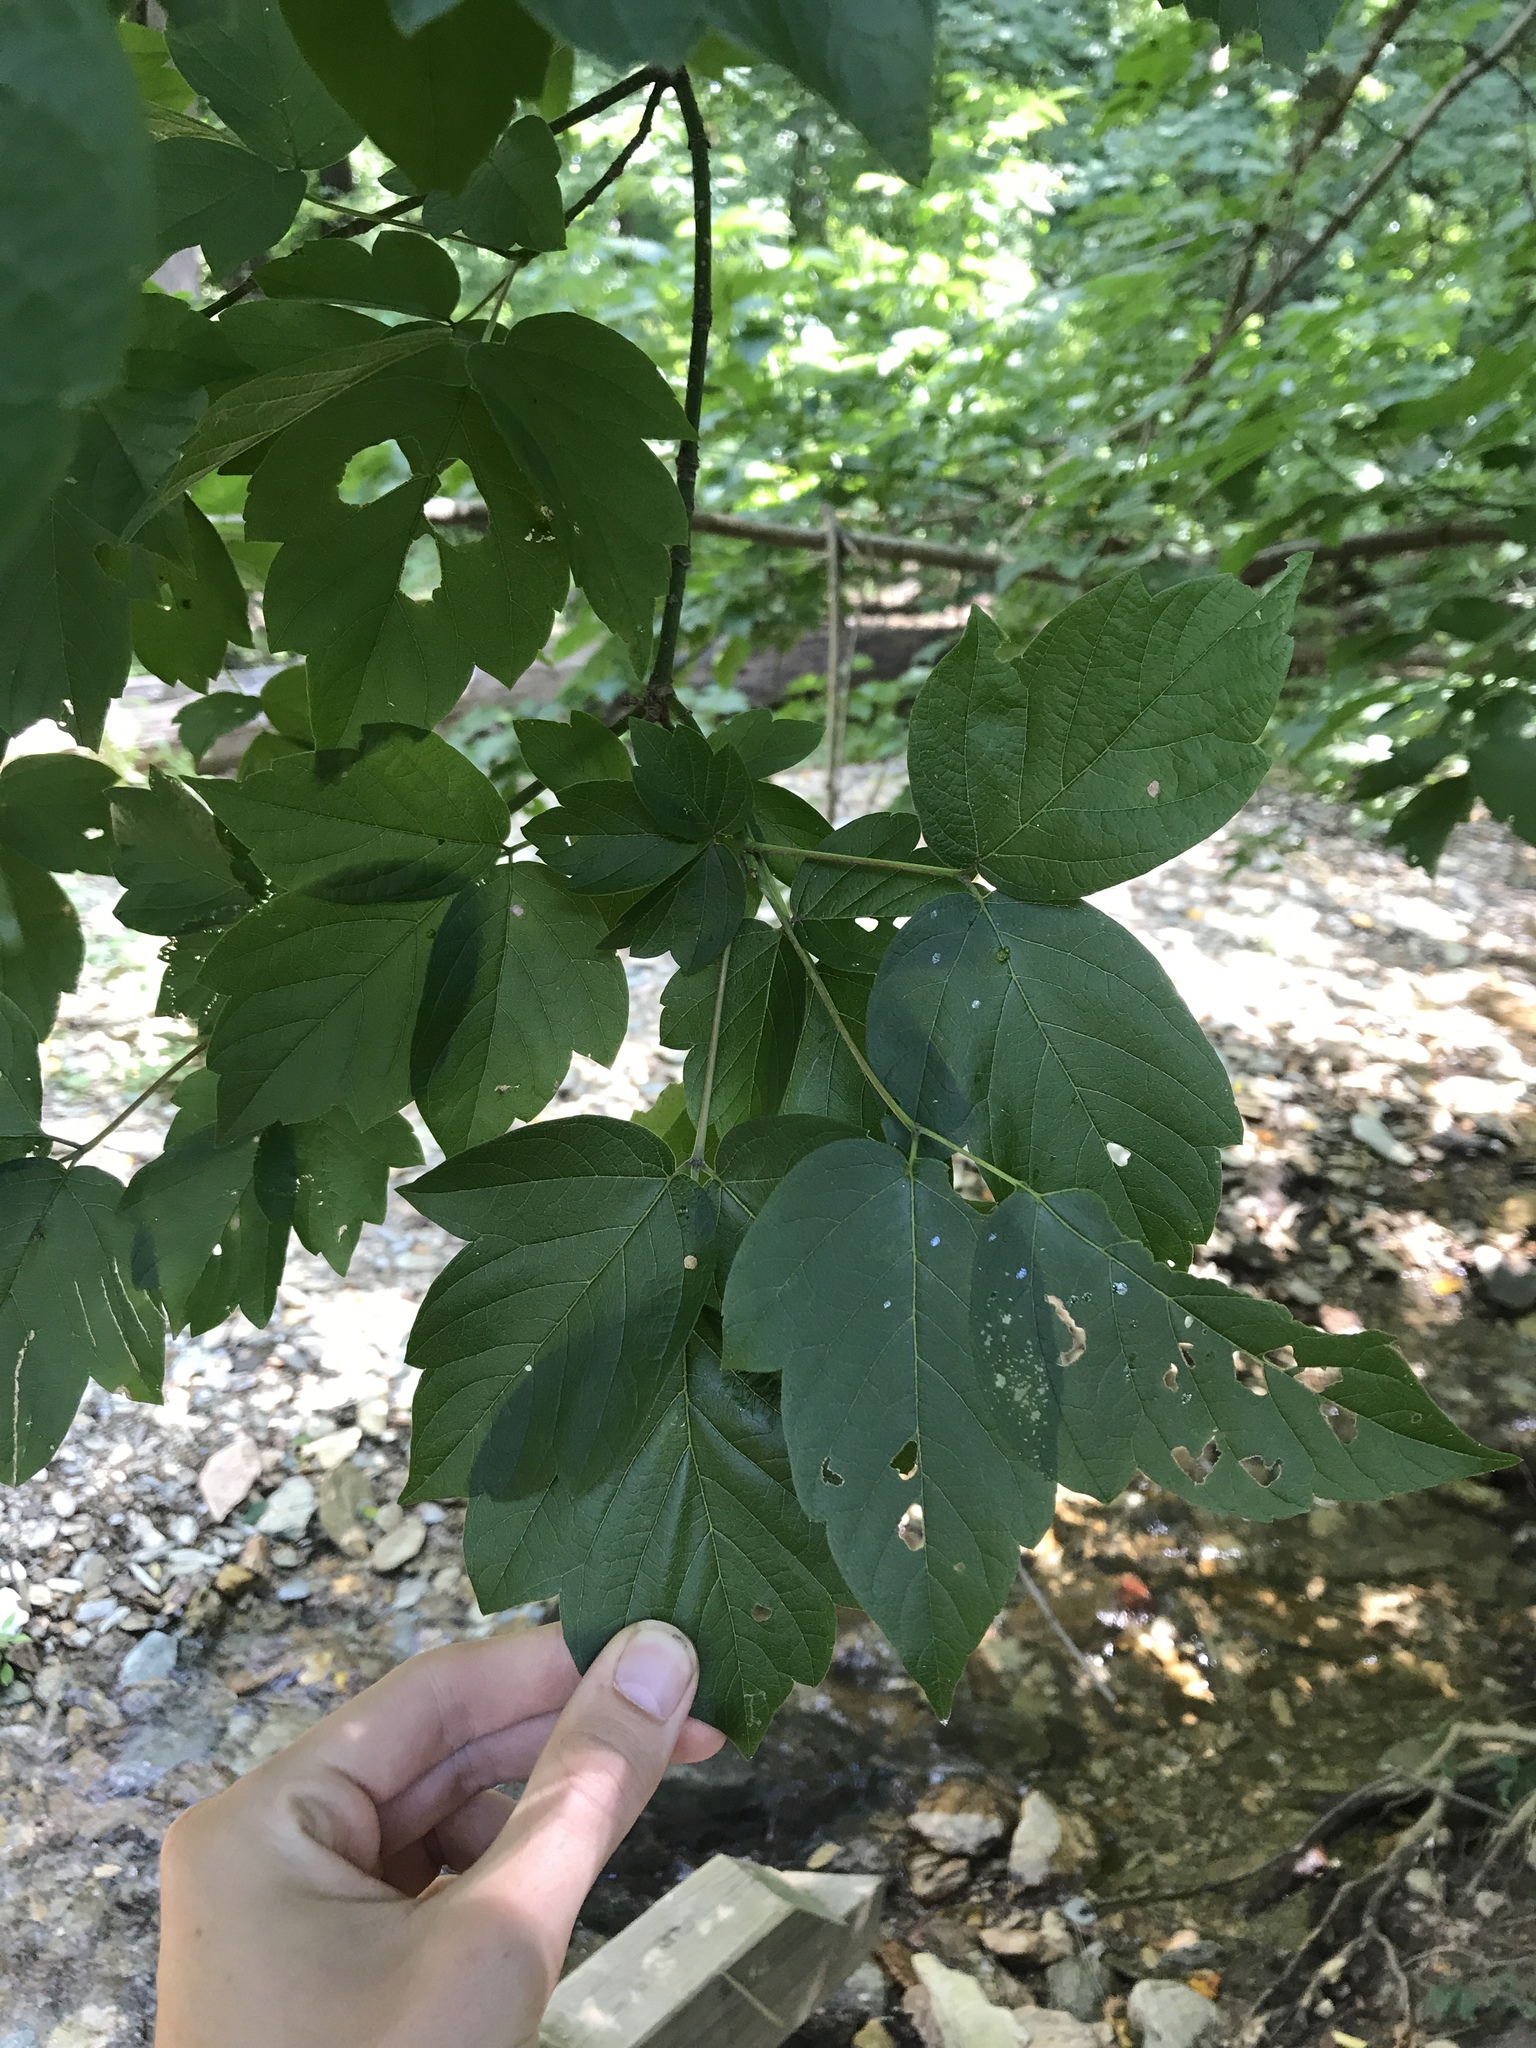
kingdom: Plantae
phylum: Tracheophyta
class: Magnoliopsida
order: Sapindales
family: Sapindaceae
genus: Acer
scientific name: Acer negundo
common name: Ashleaf maple
